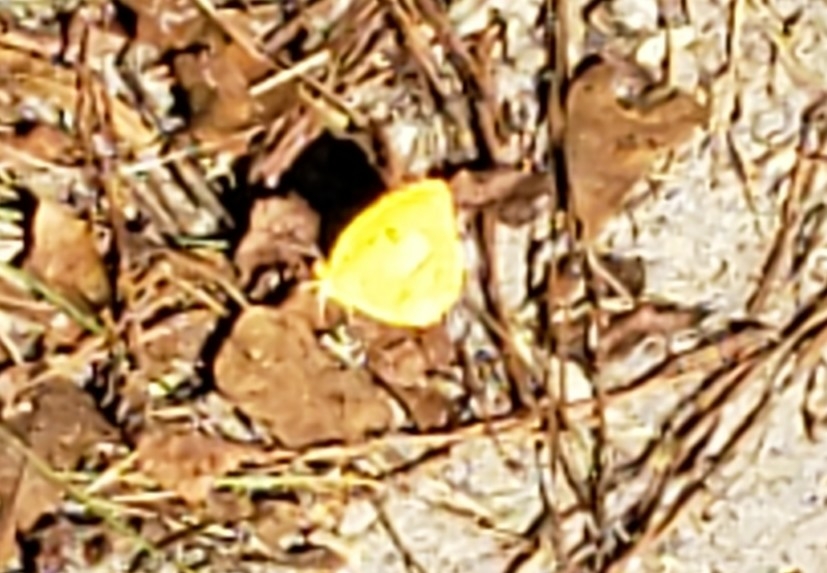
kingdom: Animalia
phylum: Arthropoda
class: Insecta
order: Lepidoptera
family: Pieridae
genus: Abaeis
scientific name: Abaeis nicippe
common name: Sleepy orange
